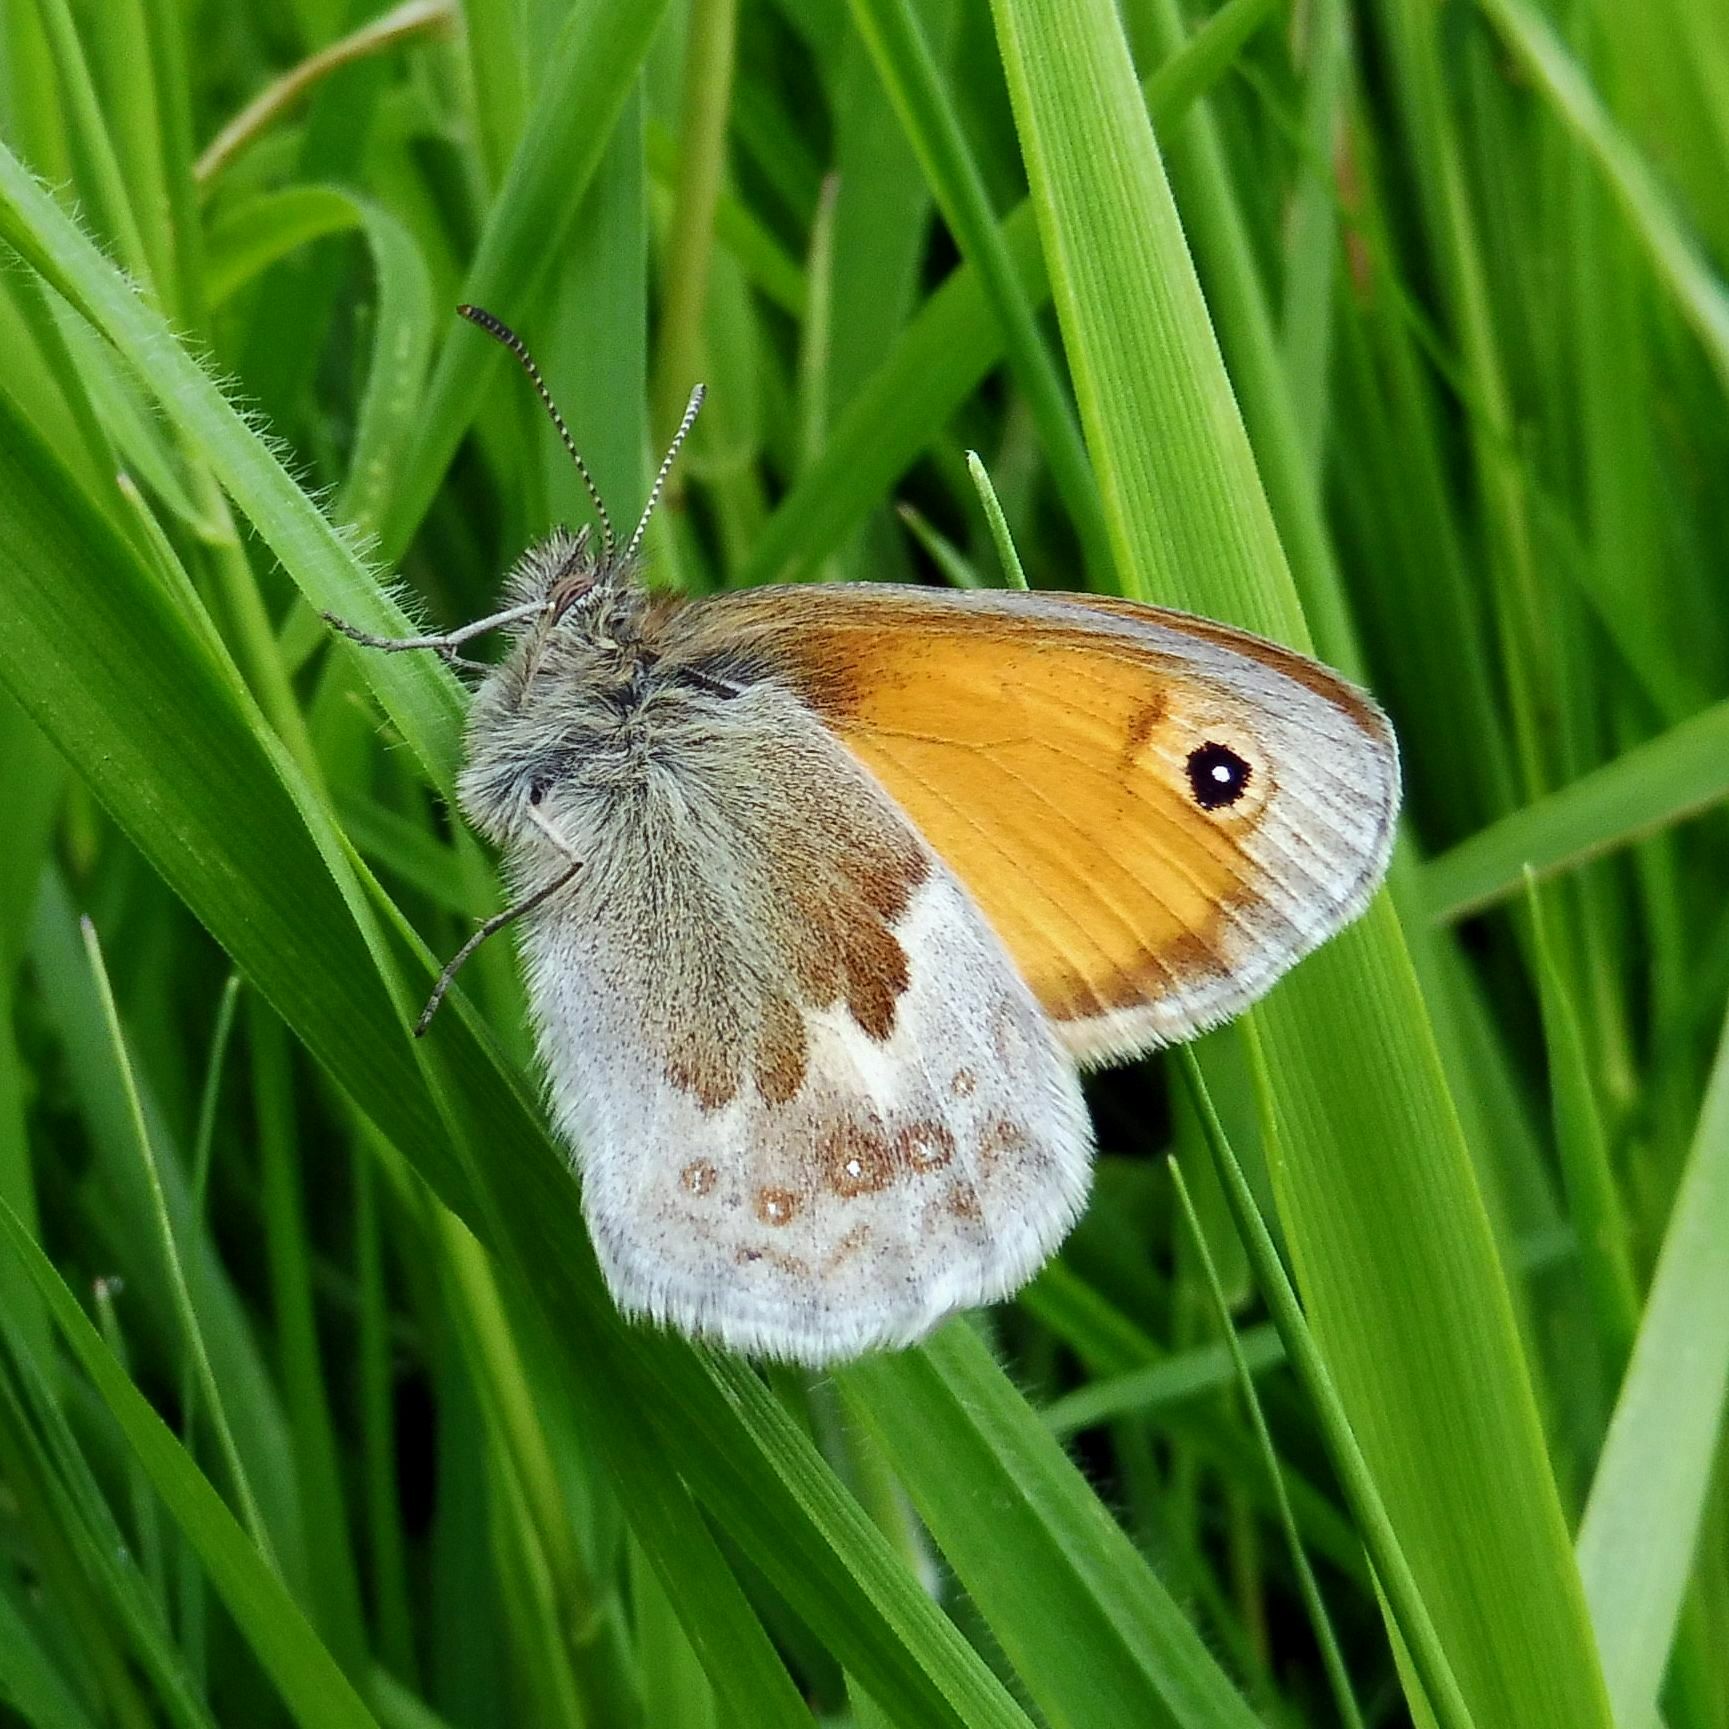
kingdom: Animalia
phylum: Arthropoda
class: Insecta
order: Lepidoptera
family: Nymphalidae
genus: Coenonympha
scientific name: Coenonympha pamphilus
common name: Small heath
